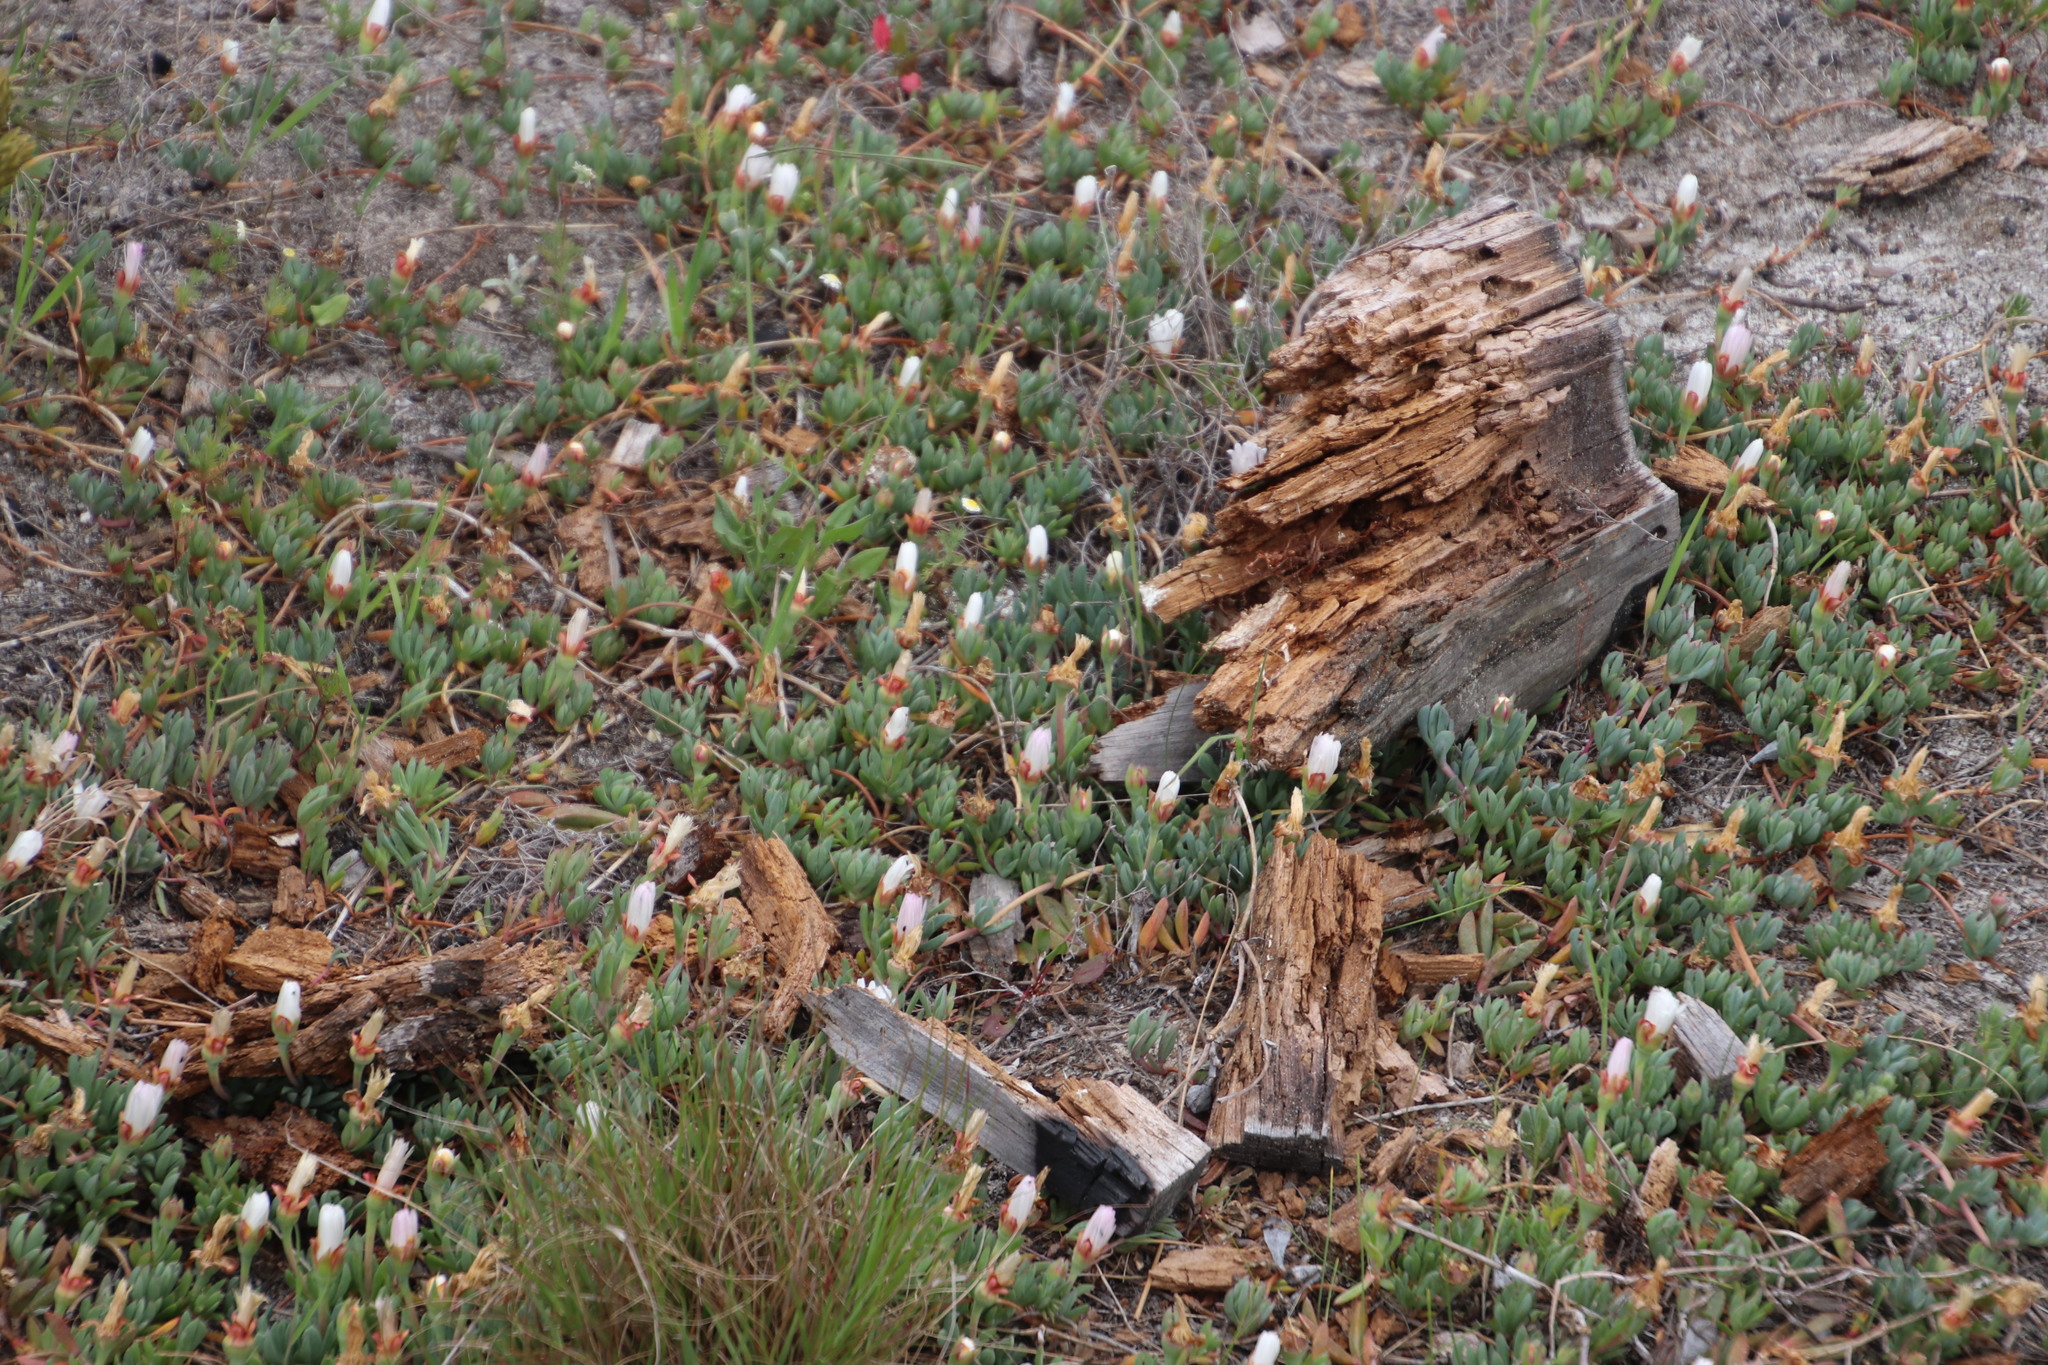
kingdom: Plantae
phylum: Tracheophyta
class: Magnoliopsida
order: Caryophyllales
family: Aizoaceae
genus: Lampranthus
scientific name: Lampranthus reptans
